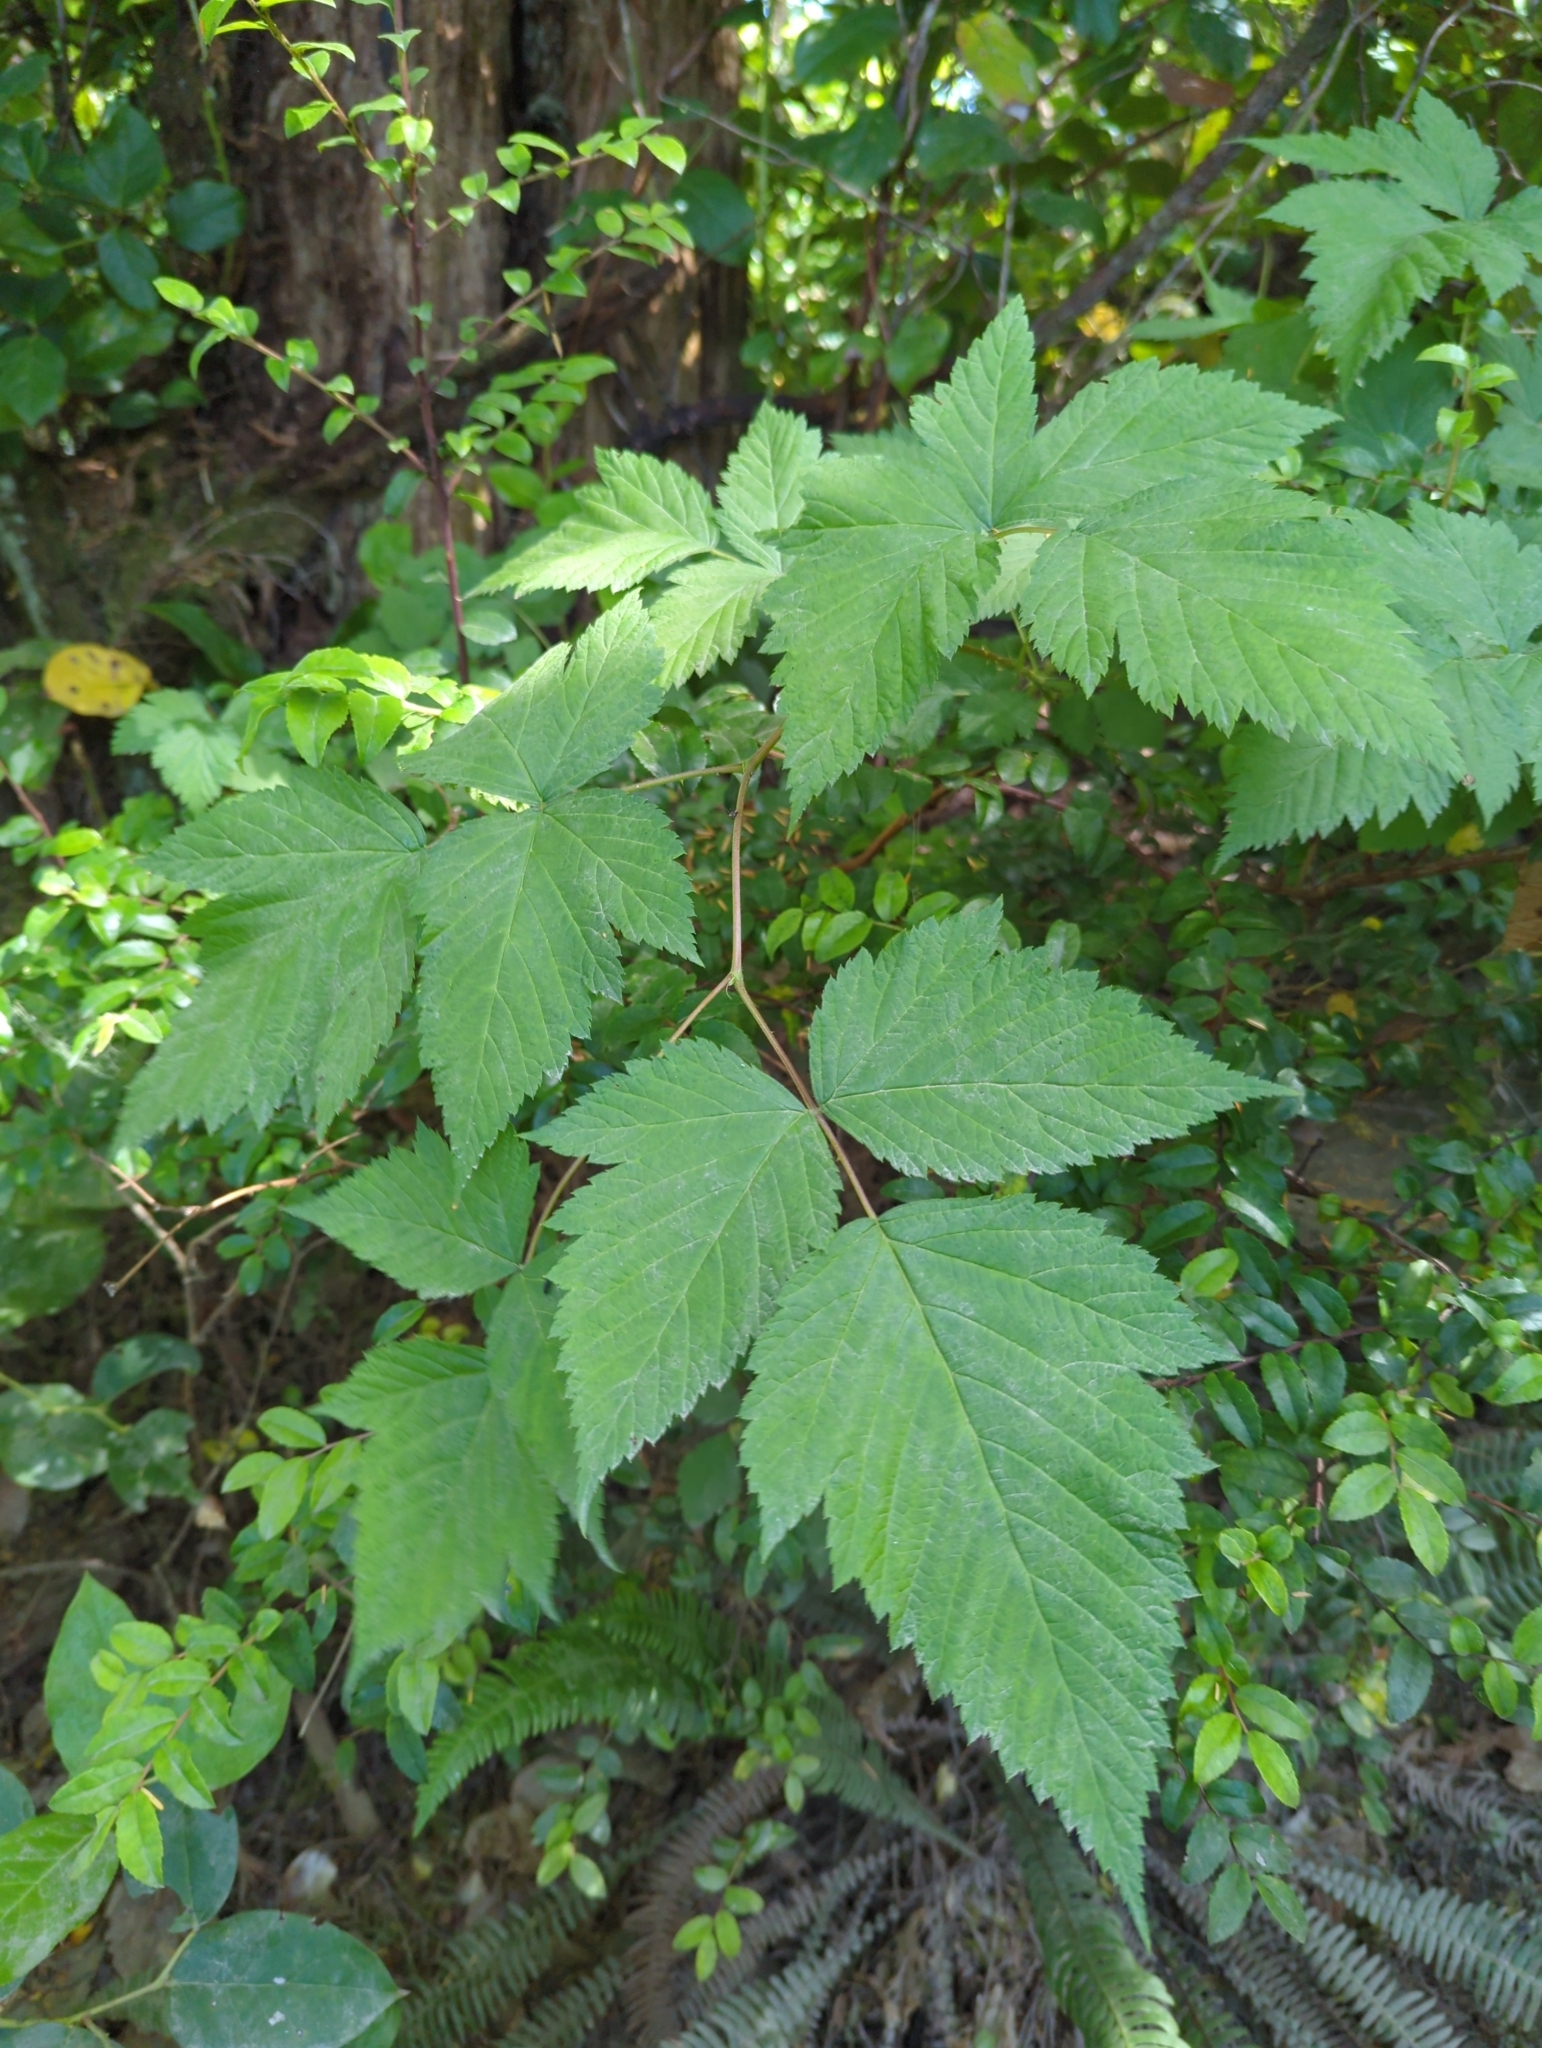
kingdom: Plantae
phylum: Tracheophyta
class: Magnoliopsida
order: Rosales
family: Rosaceae
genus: Rubus
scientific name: Rubus spectabilis
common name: Salmonberry
